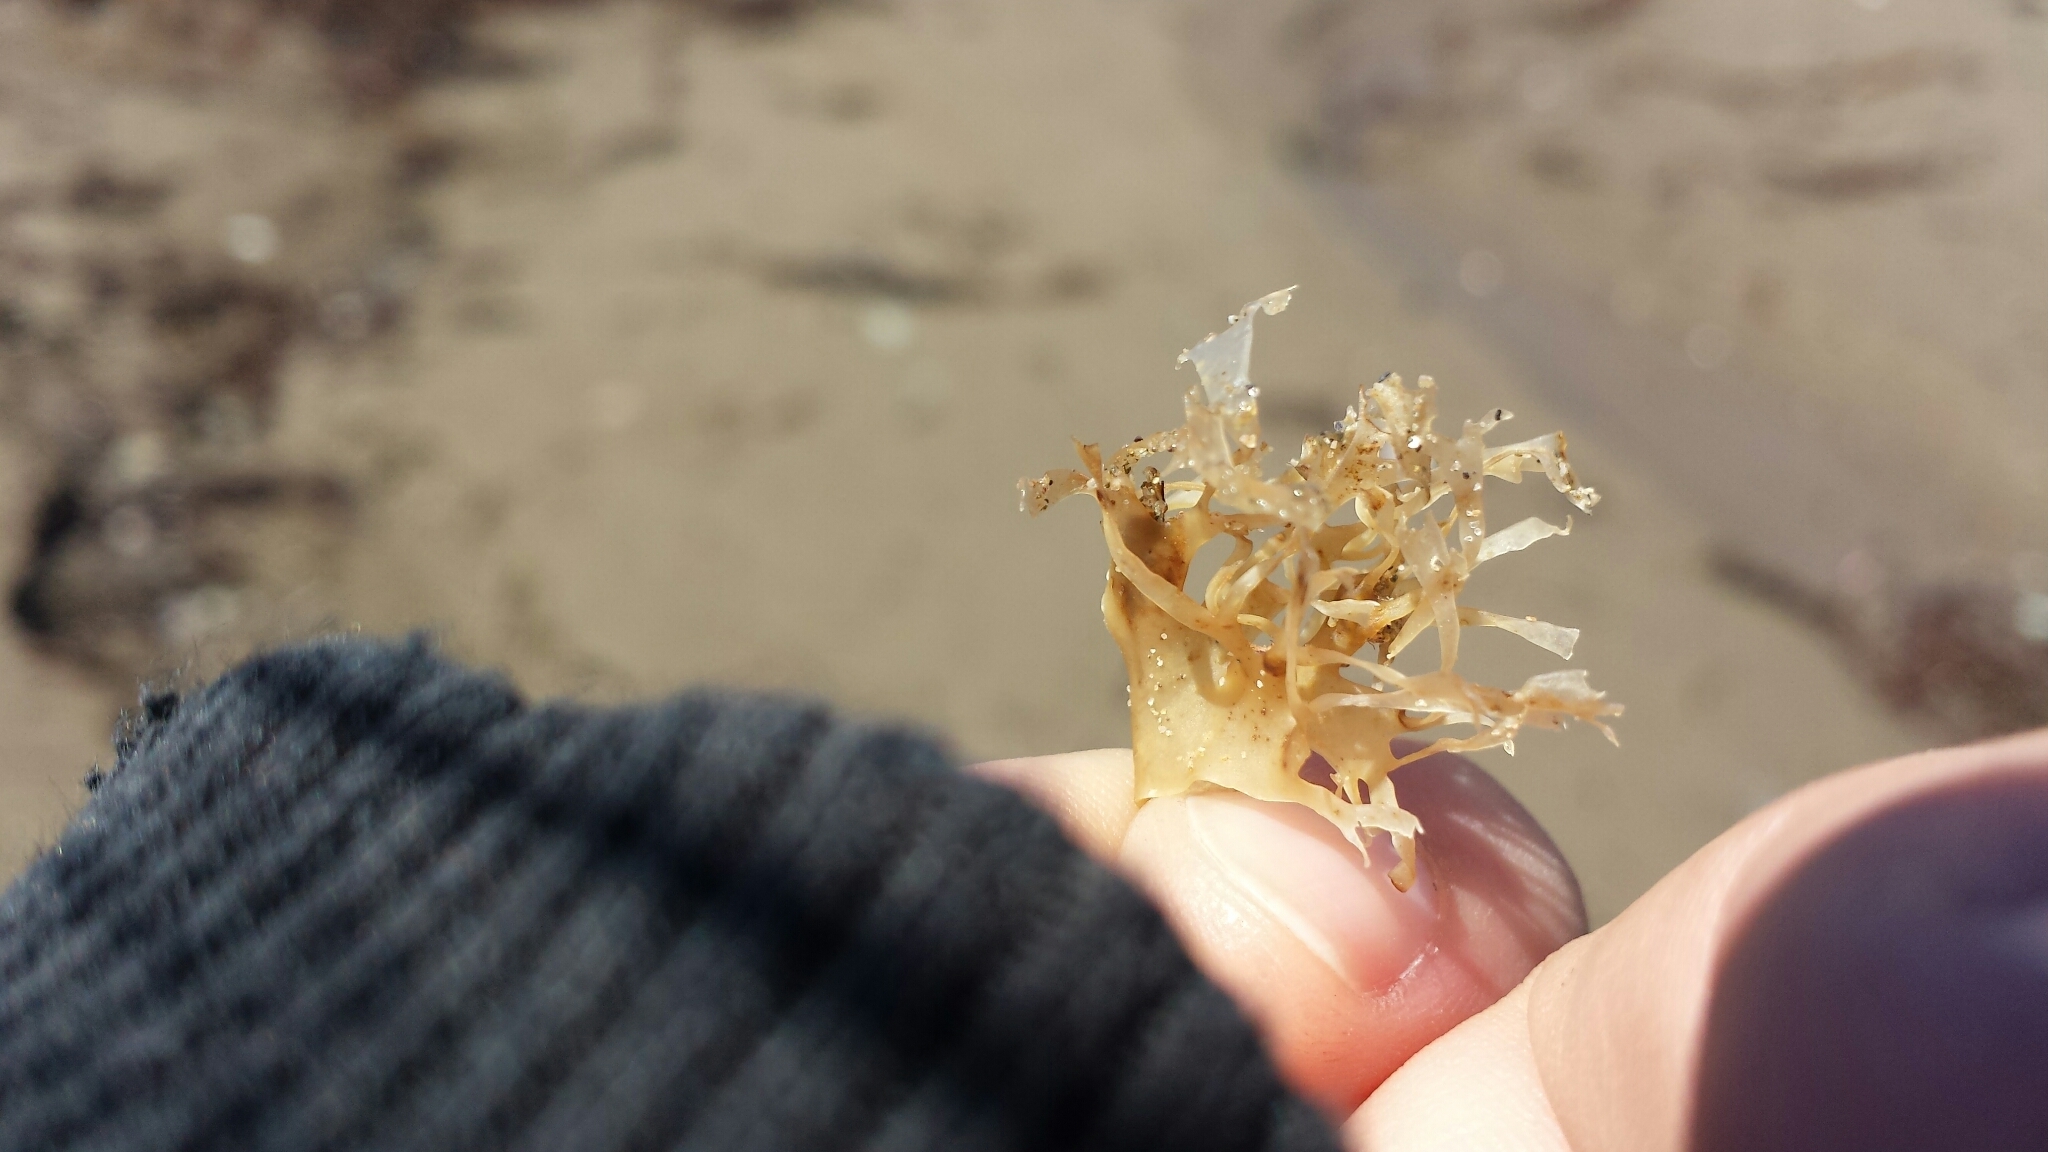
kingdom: Plantae
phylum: Rhodophyta
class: Florideophyceae
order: Gigartinales
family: Gigartinaceae
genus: Chondrus
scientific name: Chondrus crispus
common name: Carrageen
